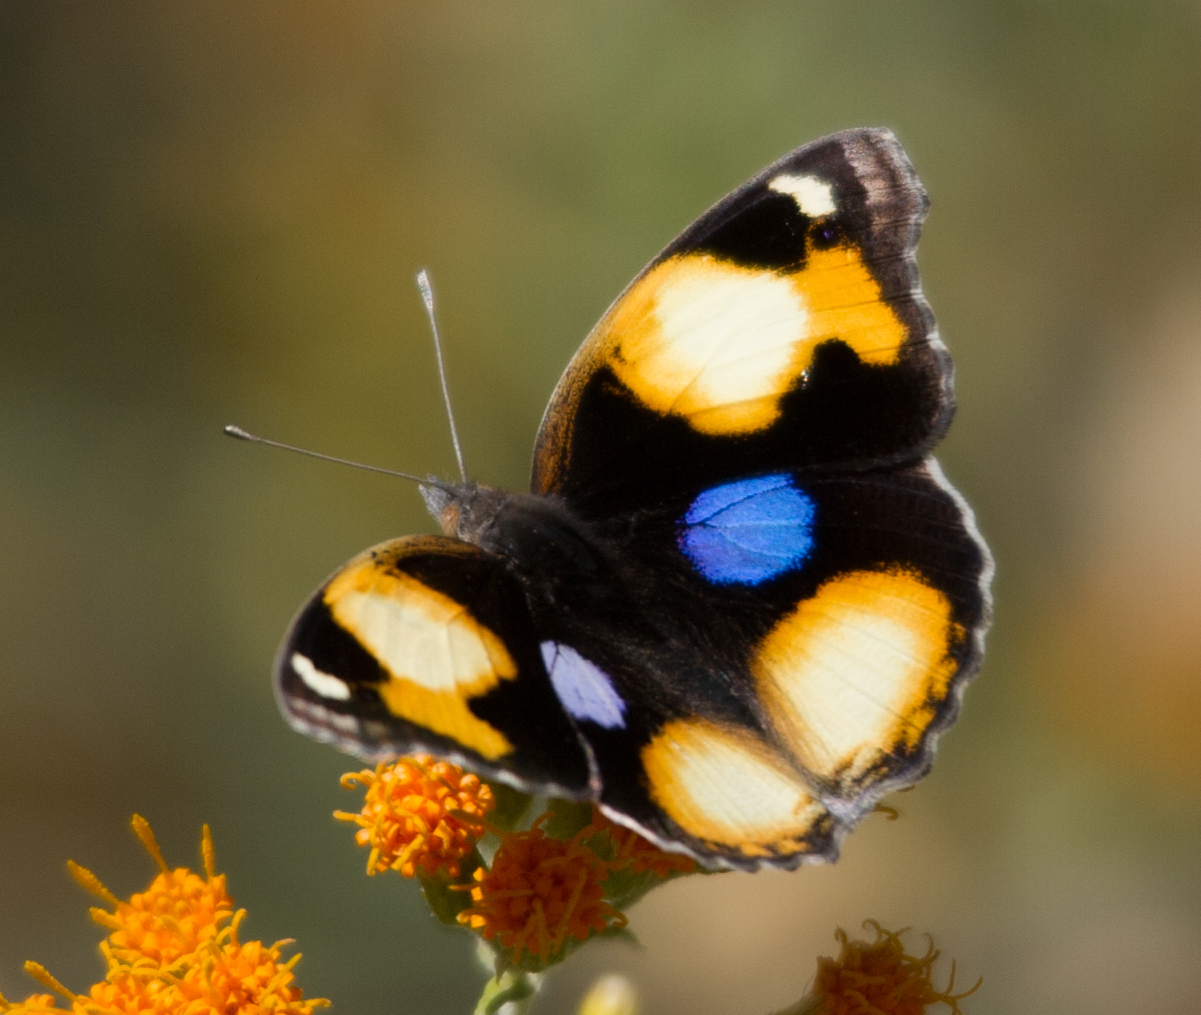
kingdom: Animalia
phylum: Arthropoda
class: Insecta
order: Lepidoptera
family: Nymphalidae
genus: Junonia
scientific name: Junonia hierta
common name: Yellow pansy
